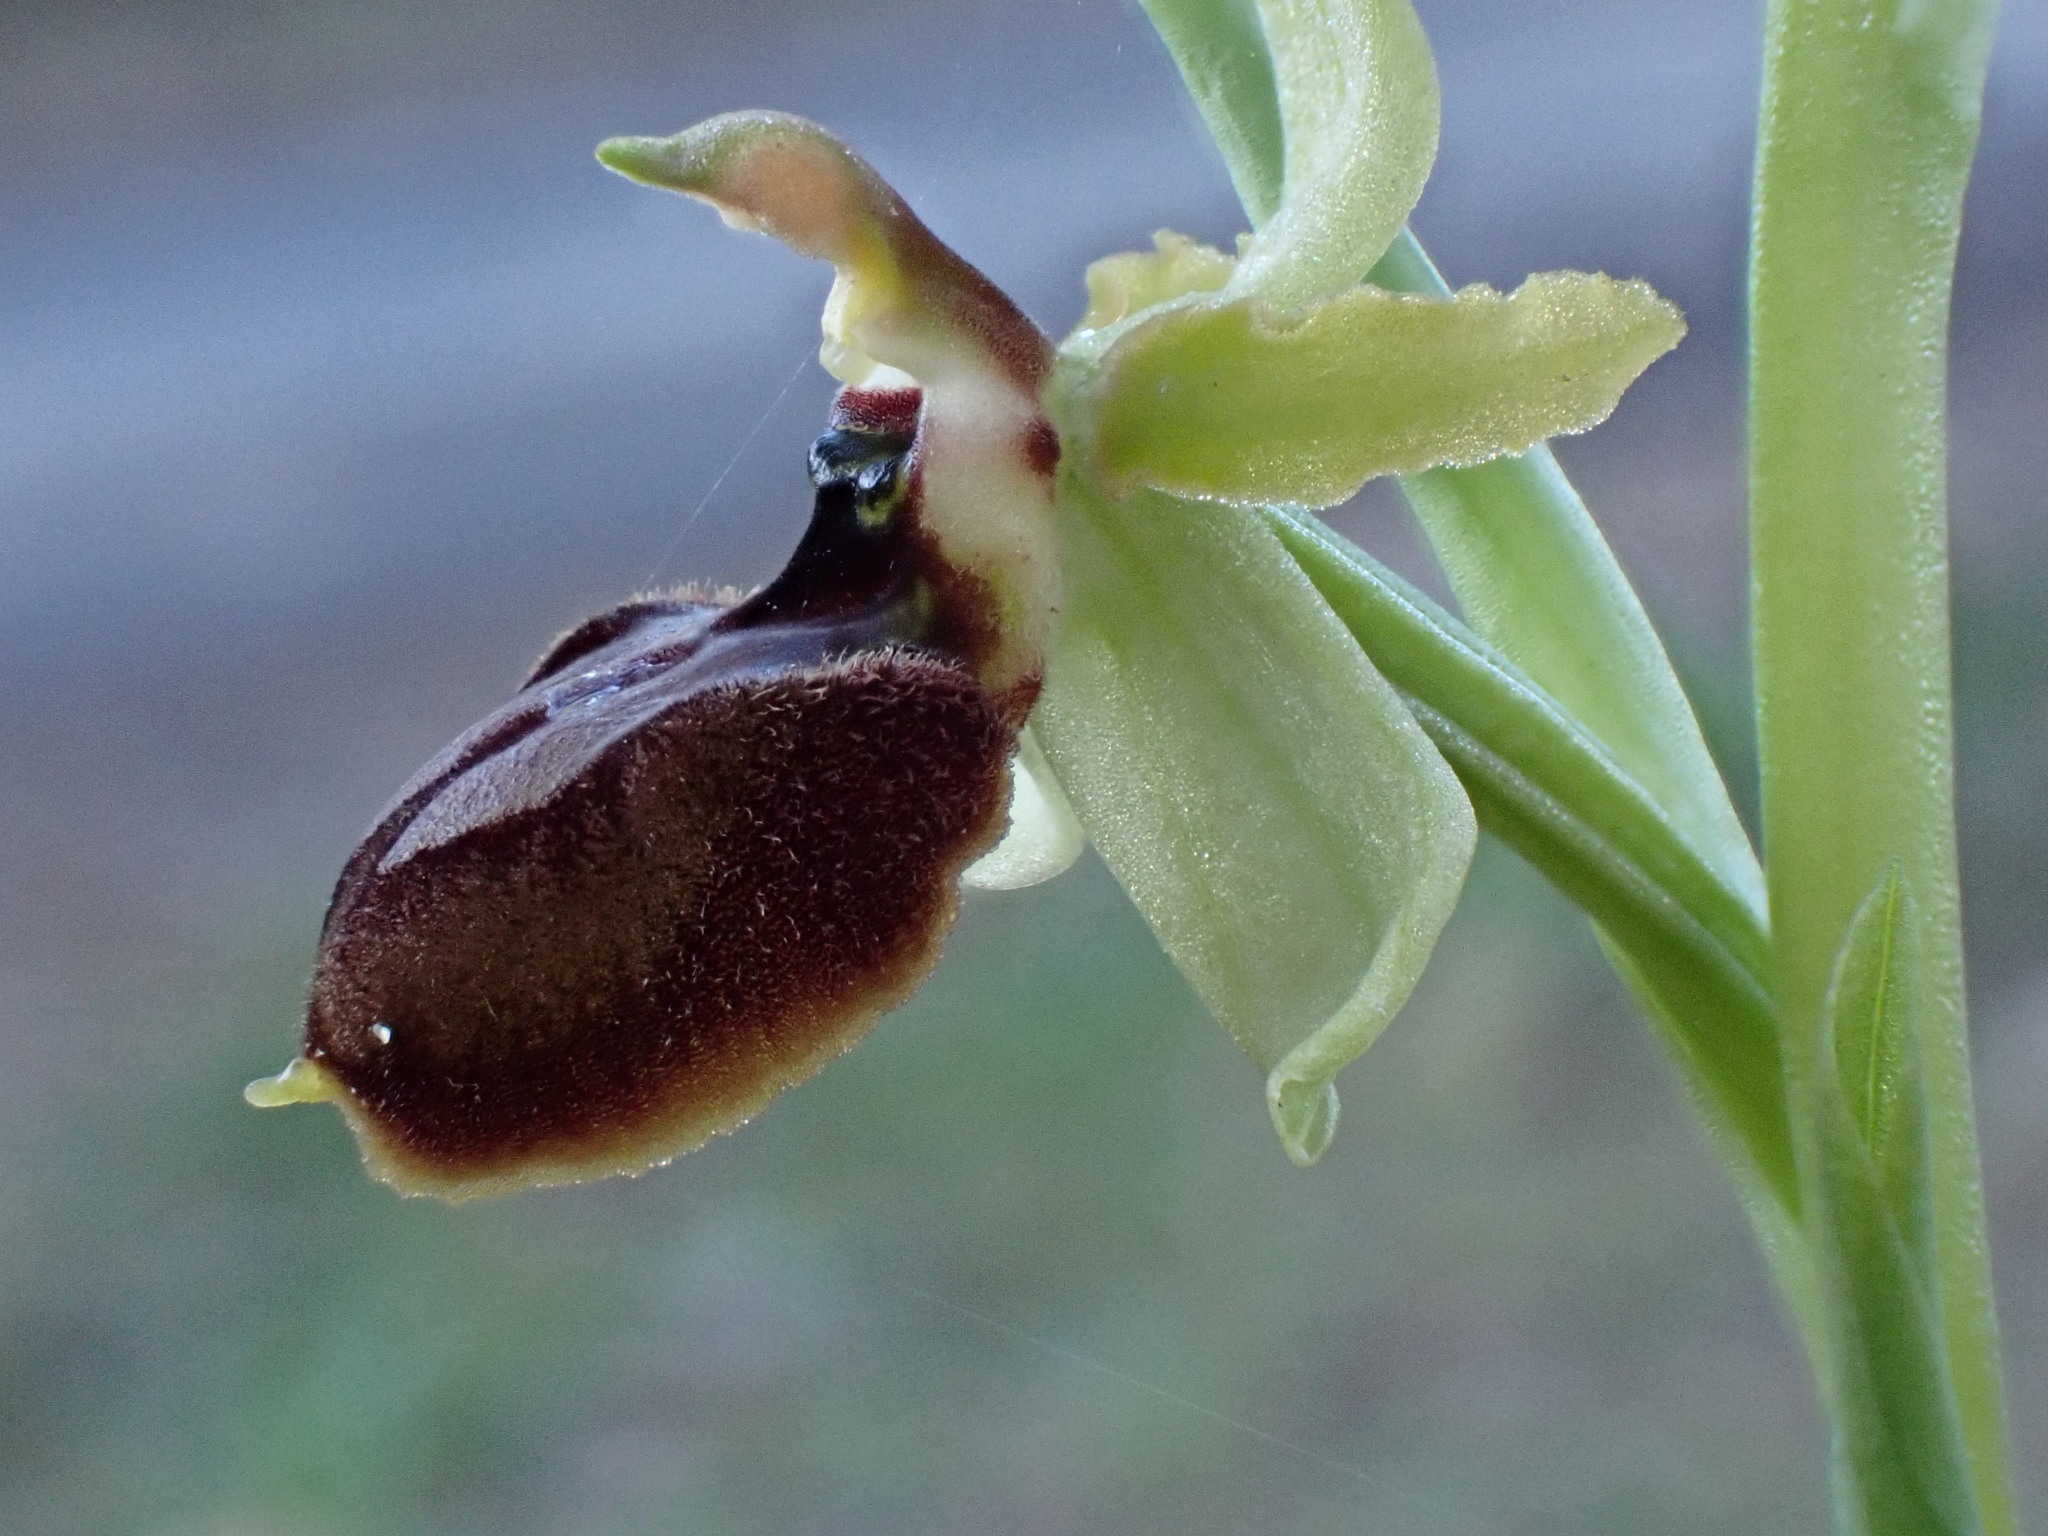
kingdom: Plantae
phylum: Tracheophyta
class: Liliopsida
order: Asparagales
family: Orchidaceae
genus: Ophrys
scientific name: Ophrys arachnitiformis
